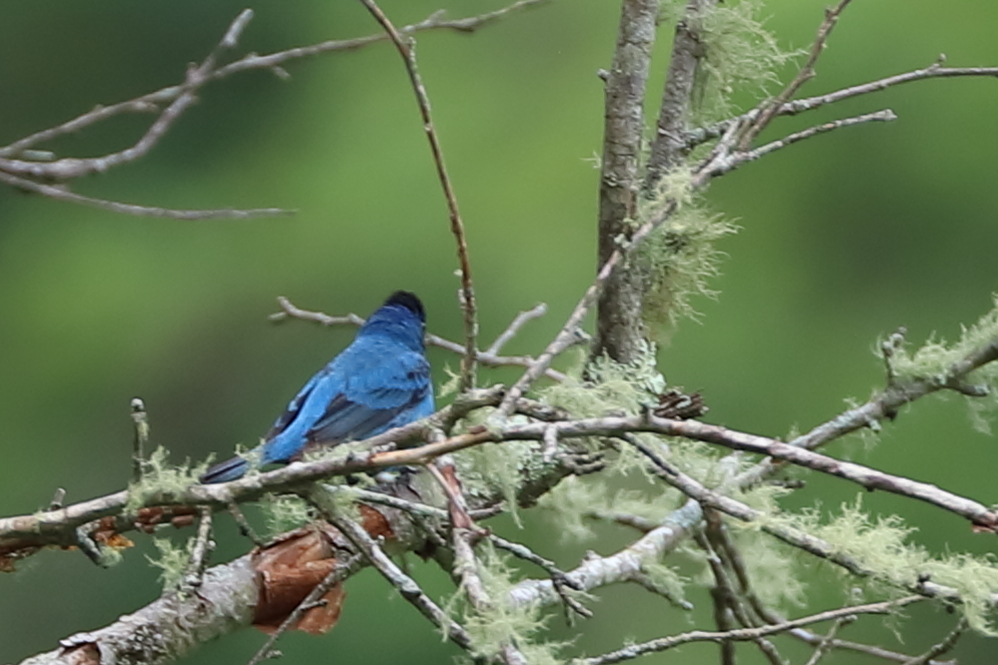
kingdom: Animalia
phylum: Chordata
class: Aves
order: Passeriformes
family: Cardinalidae
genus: Passerina
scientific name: Passerina cyanea
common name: Indigo bunting
